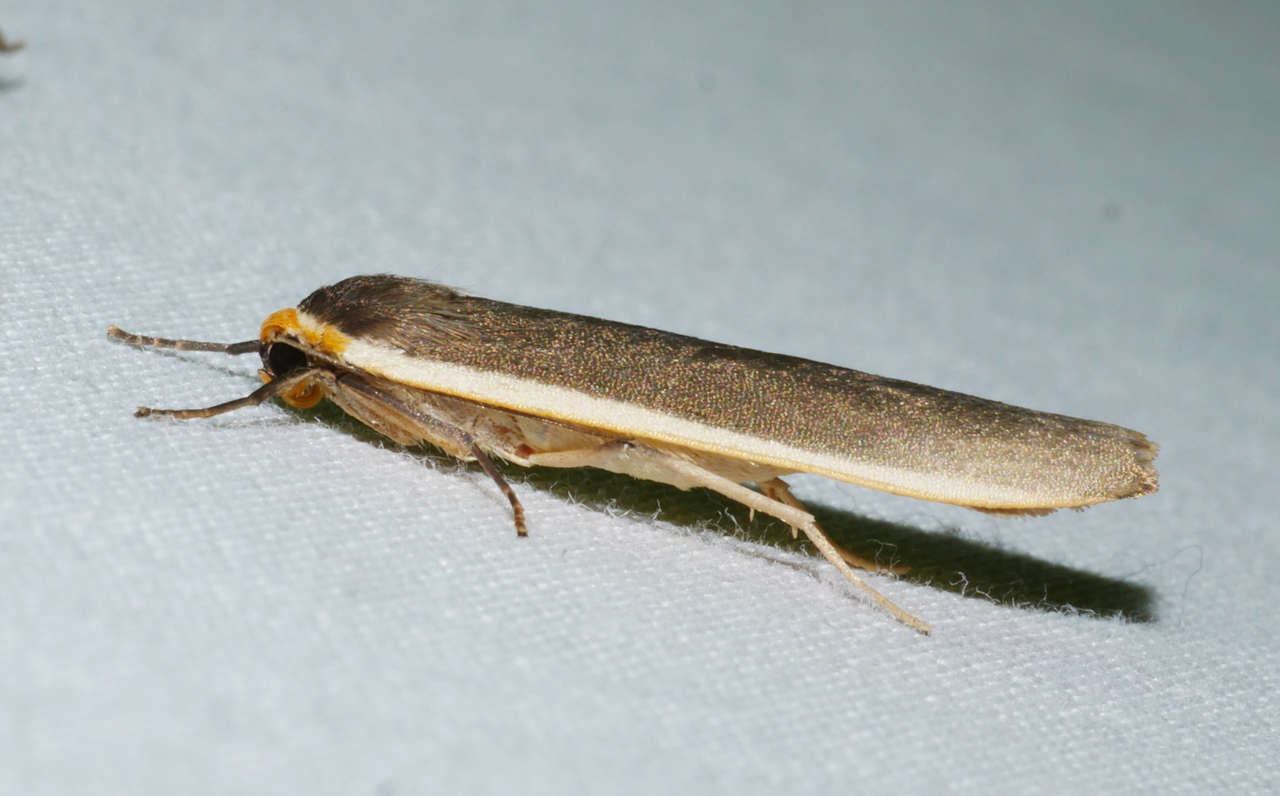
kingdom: Animalia
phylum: Arthropoda
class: Insecta
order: Lepidoptera
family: Erebidae
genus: Palaeosia
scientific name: Palaeosia bicosta
